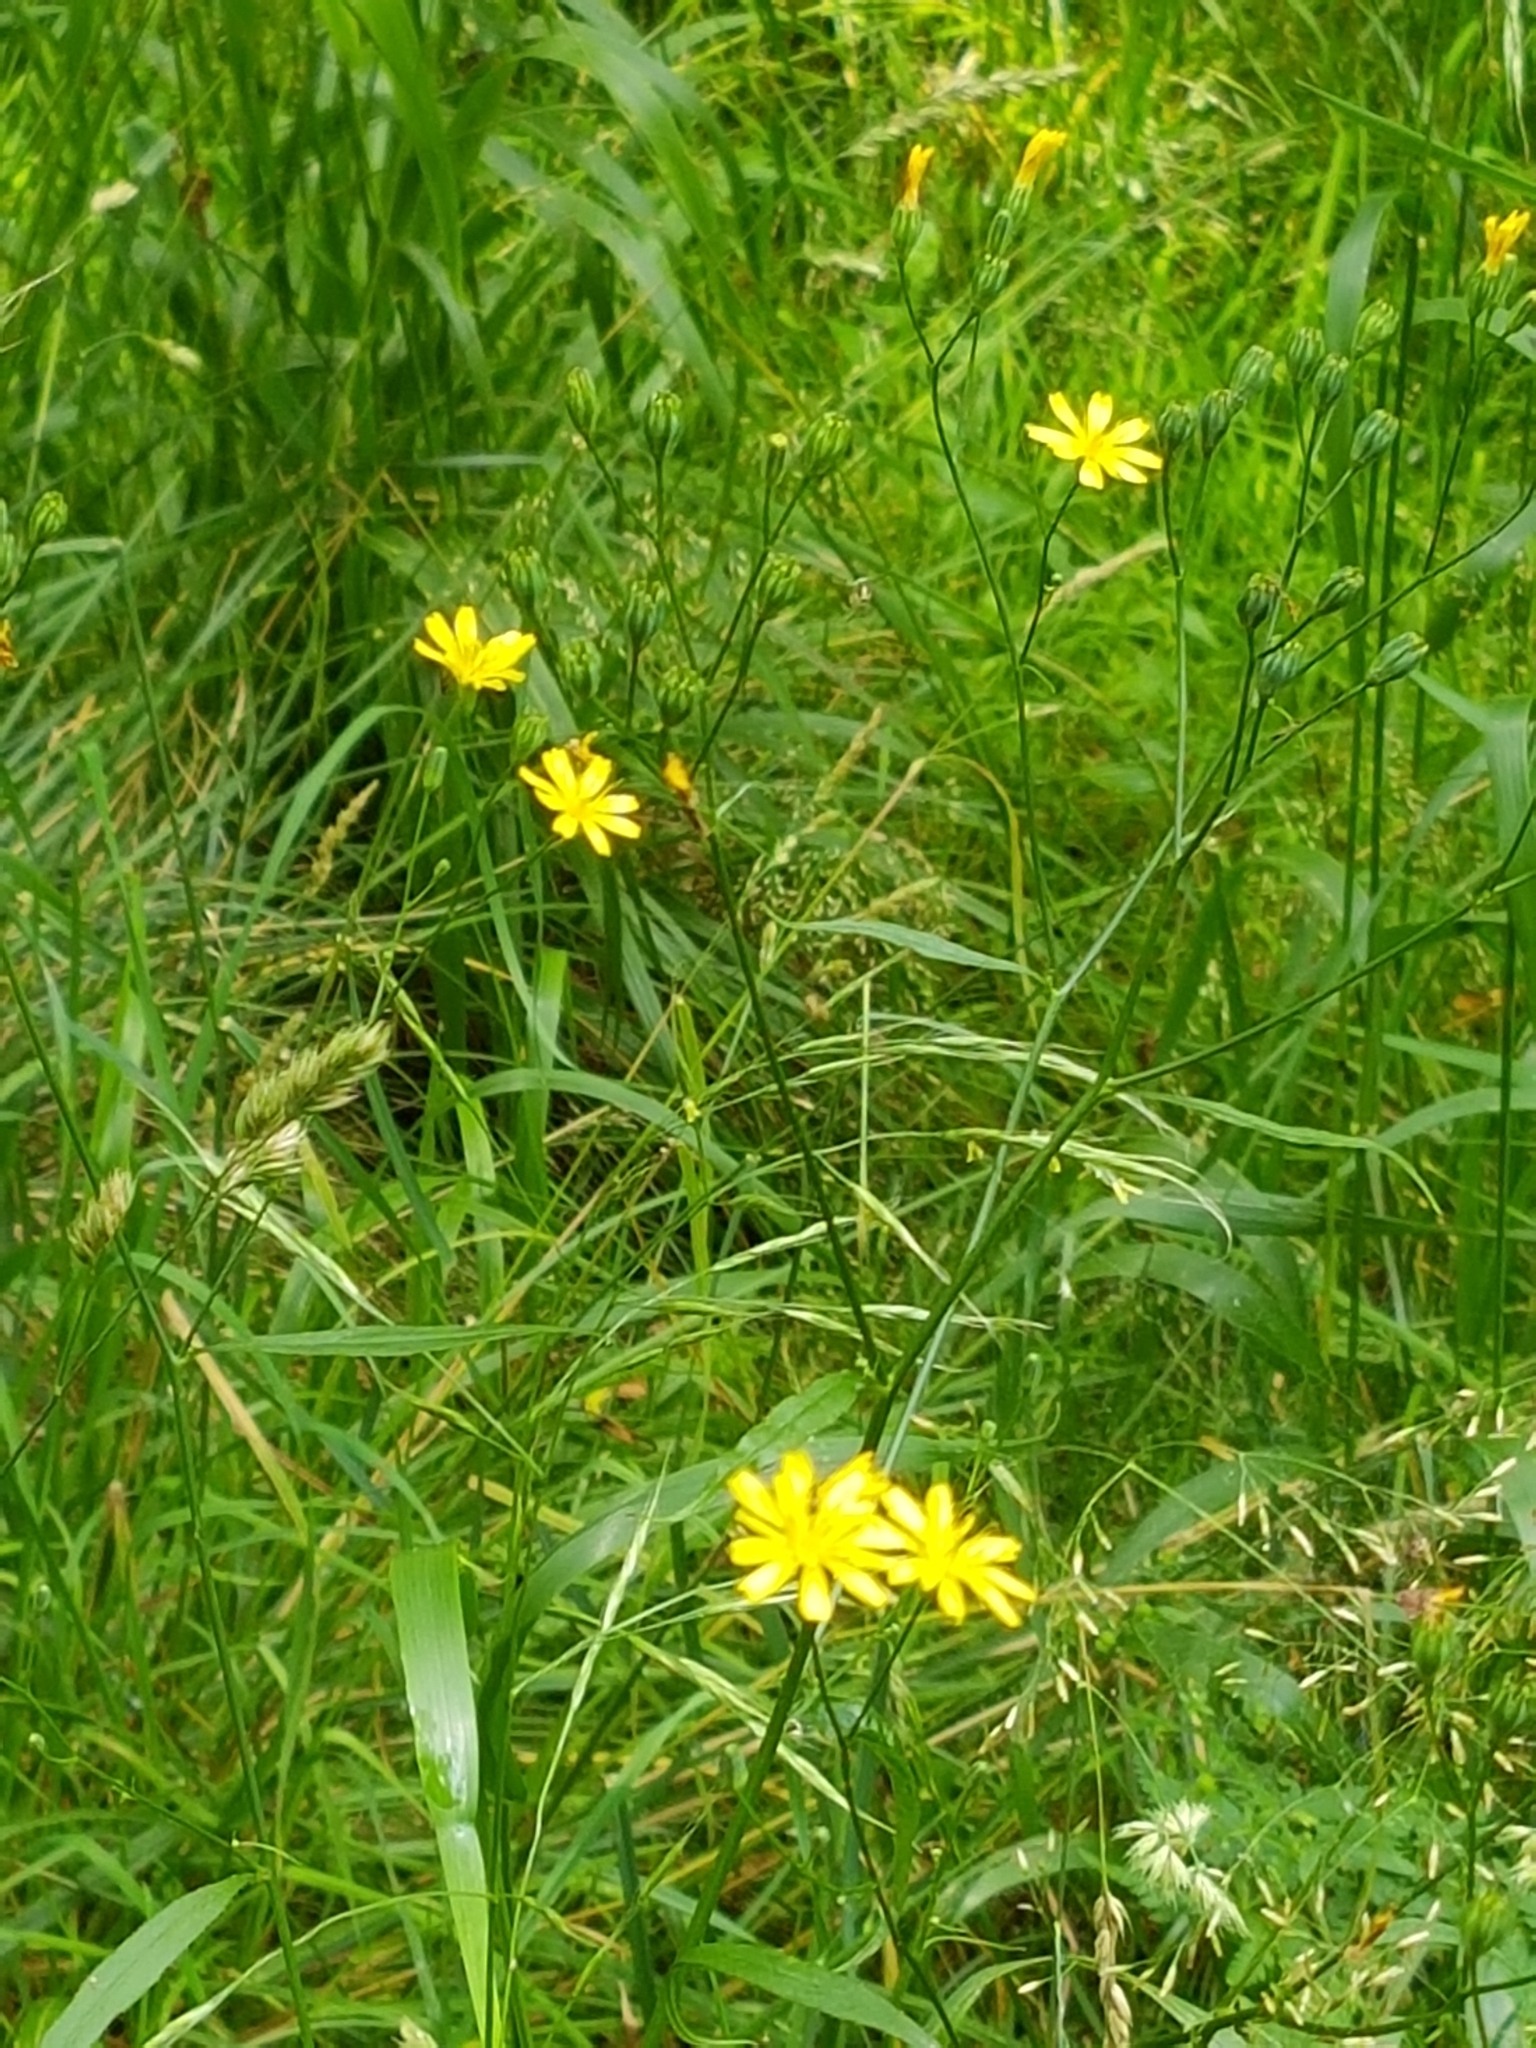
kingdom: Plantae
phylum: Tracheophyta
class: Magnoliopsida
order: Asterales
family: Asteraceae
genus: Lapsana
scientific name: Lapsana communis
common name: Nipplewort
